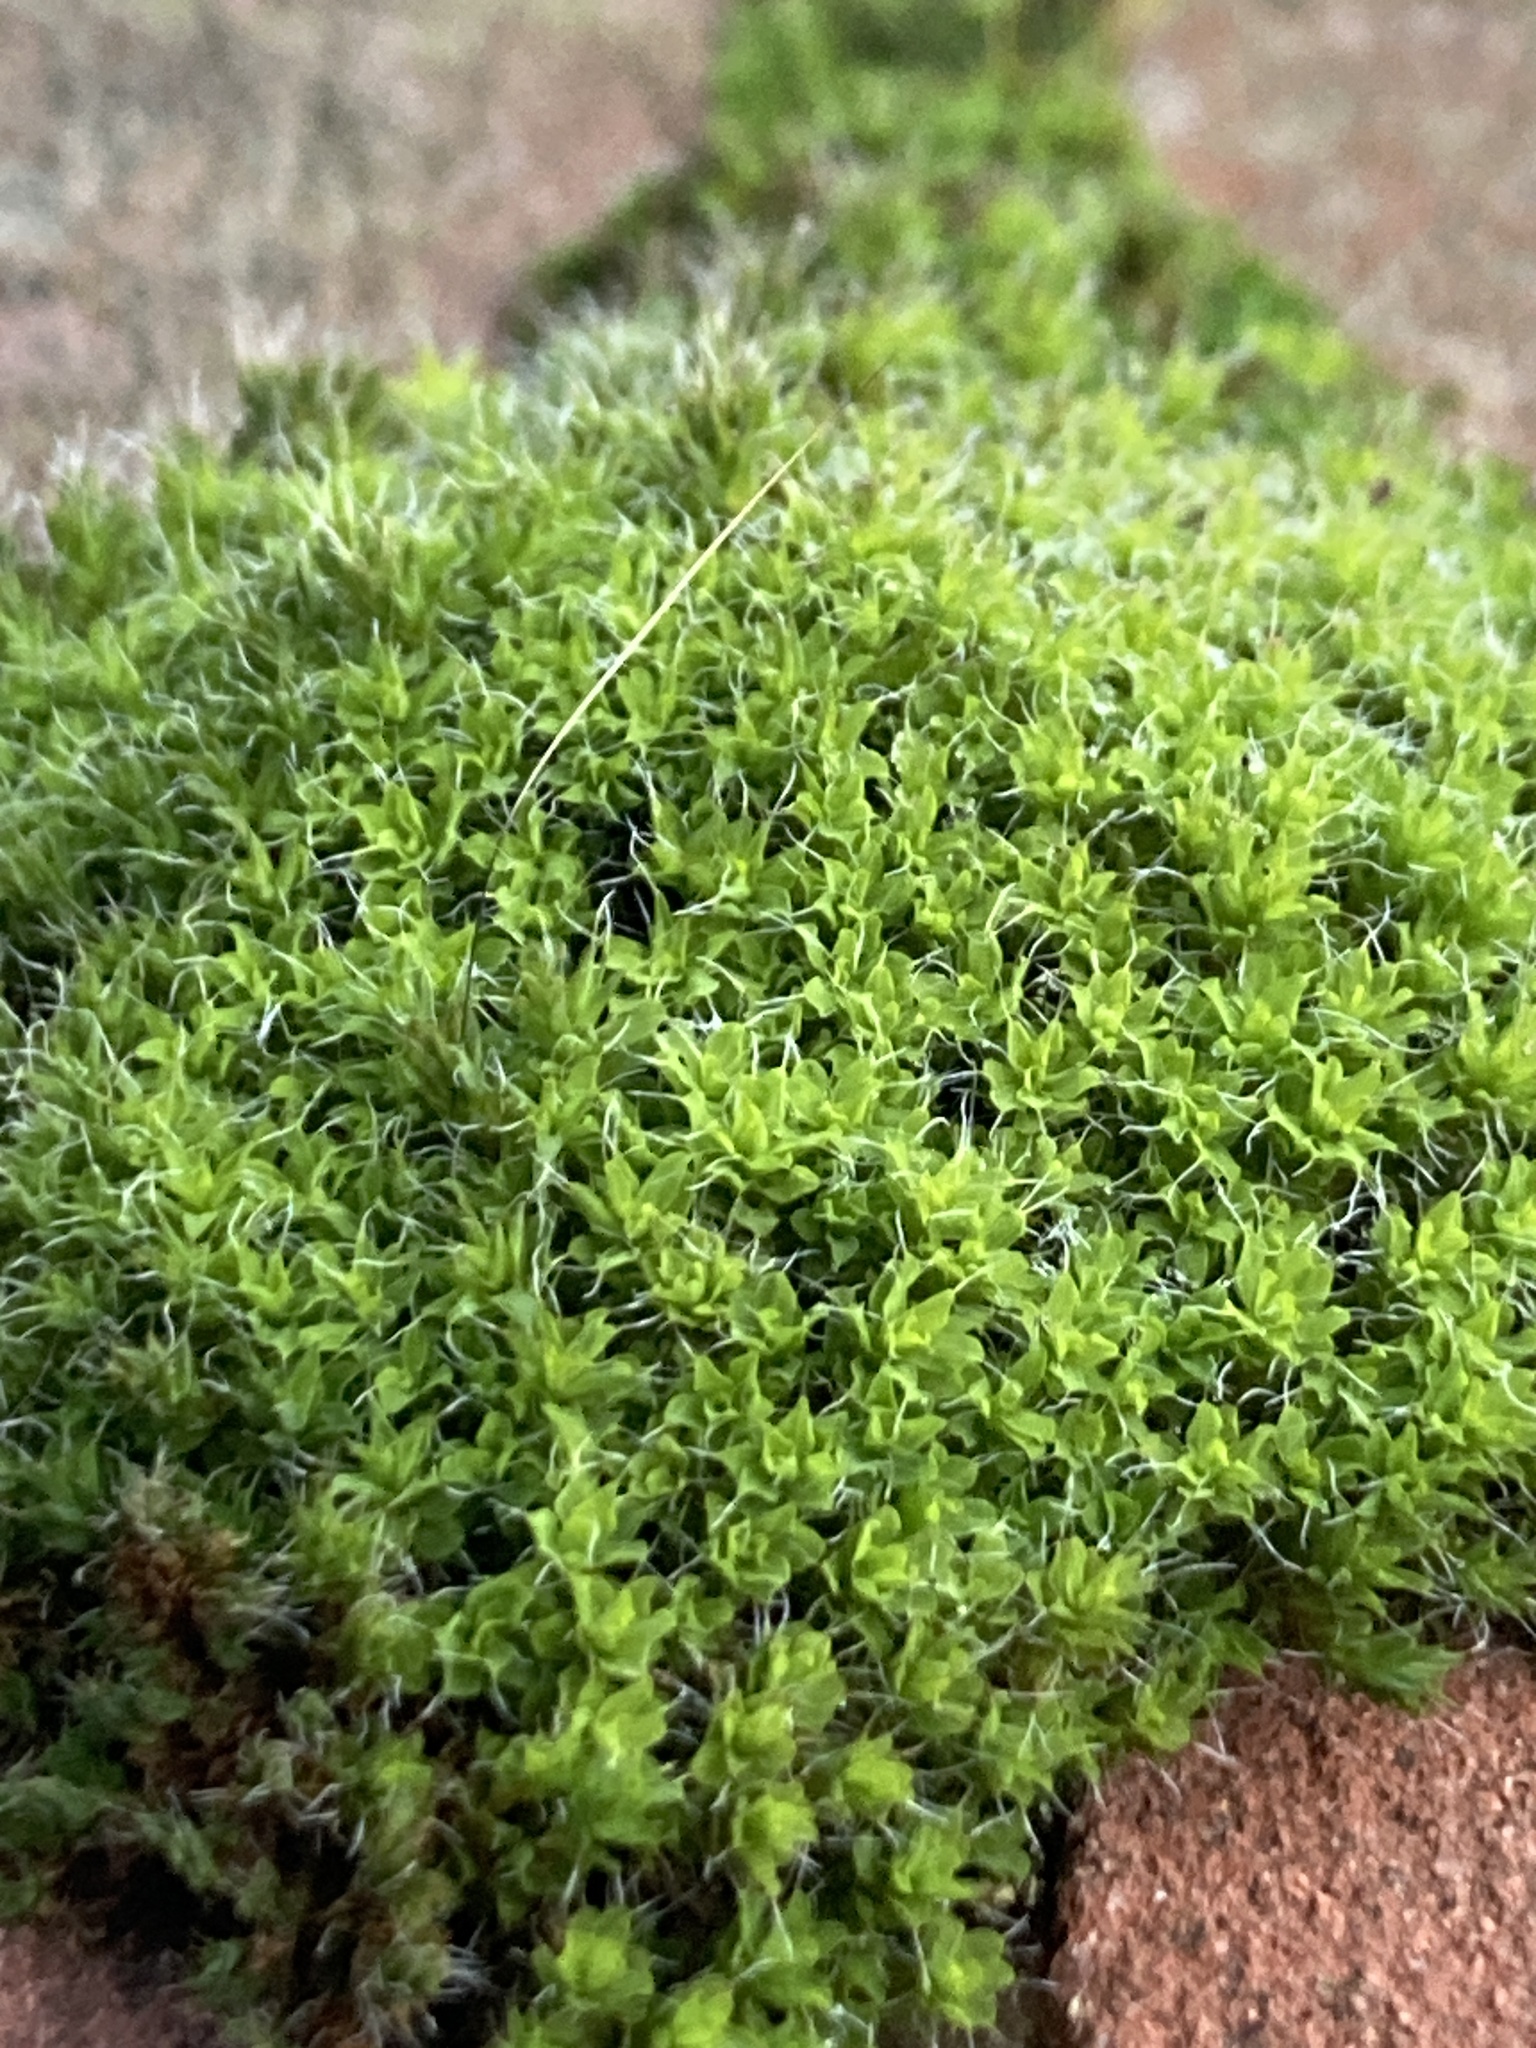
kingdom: Plantae
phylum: Bryophyta
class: Bryopsida
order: Pottiales
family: Pottiaceae
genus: Syntrichia
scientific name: Syntrichia montana
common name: Intermediate screw-moss
